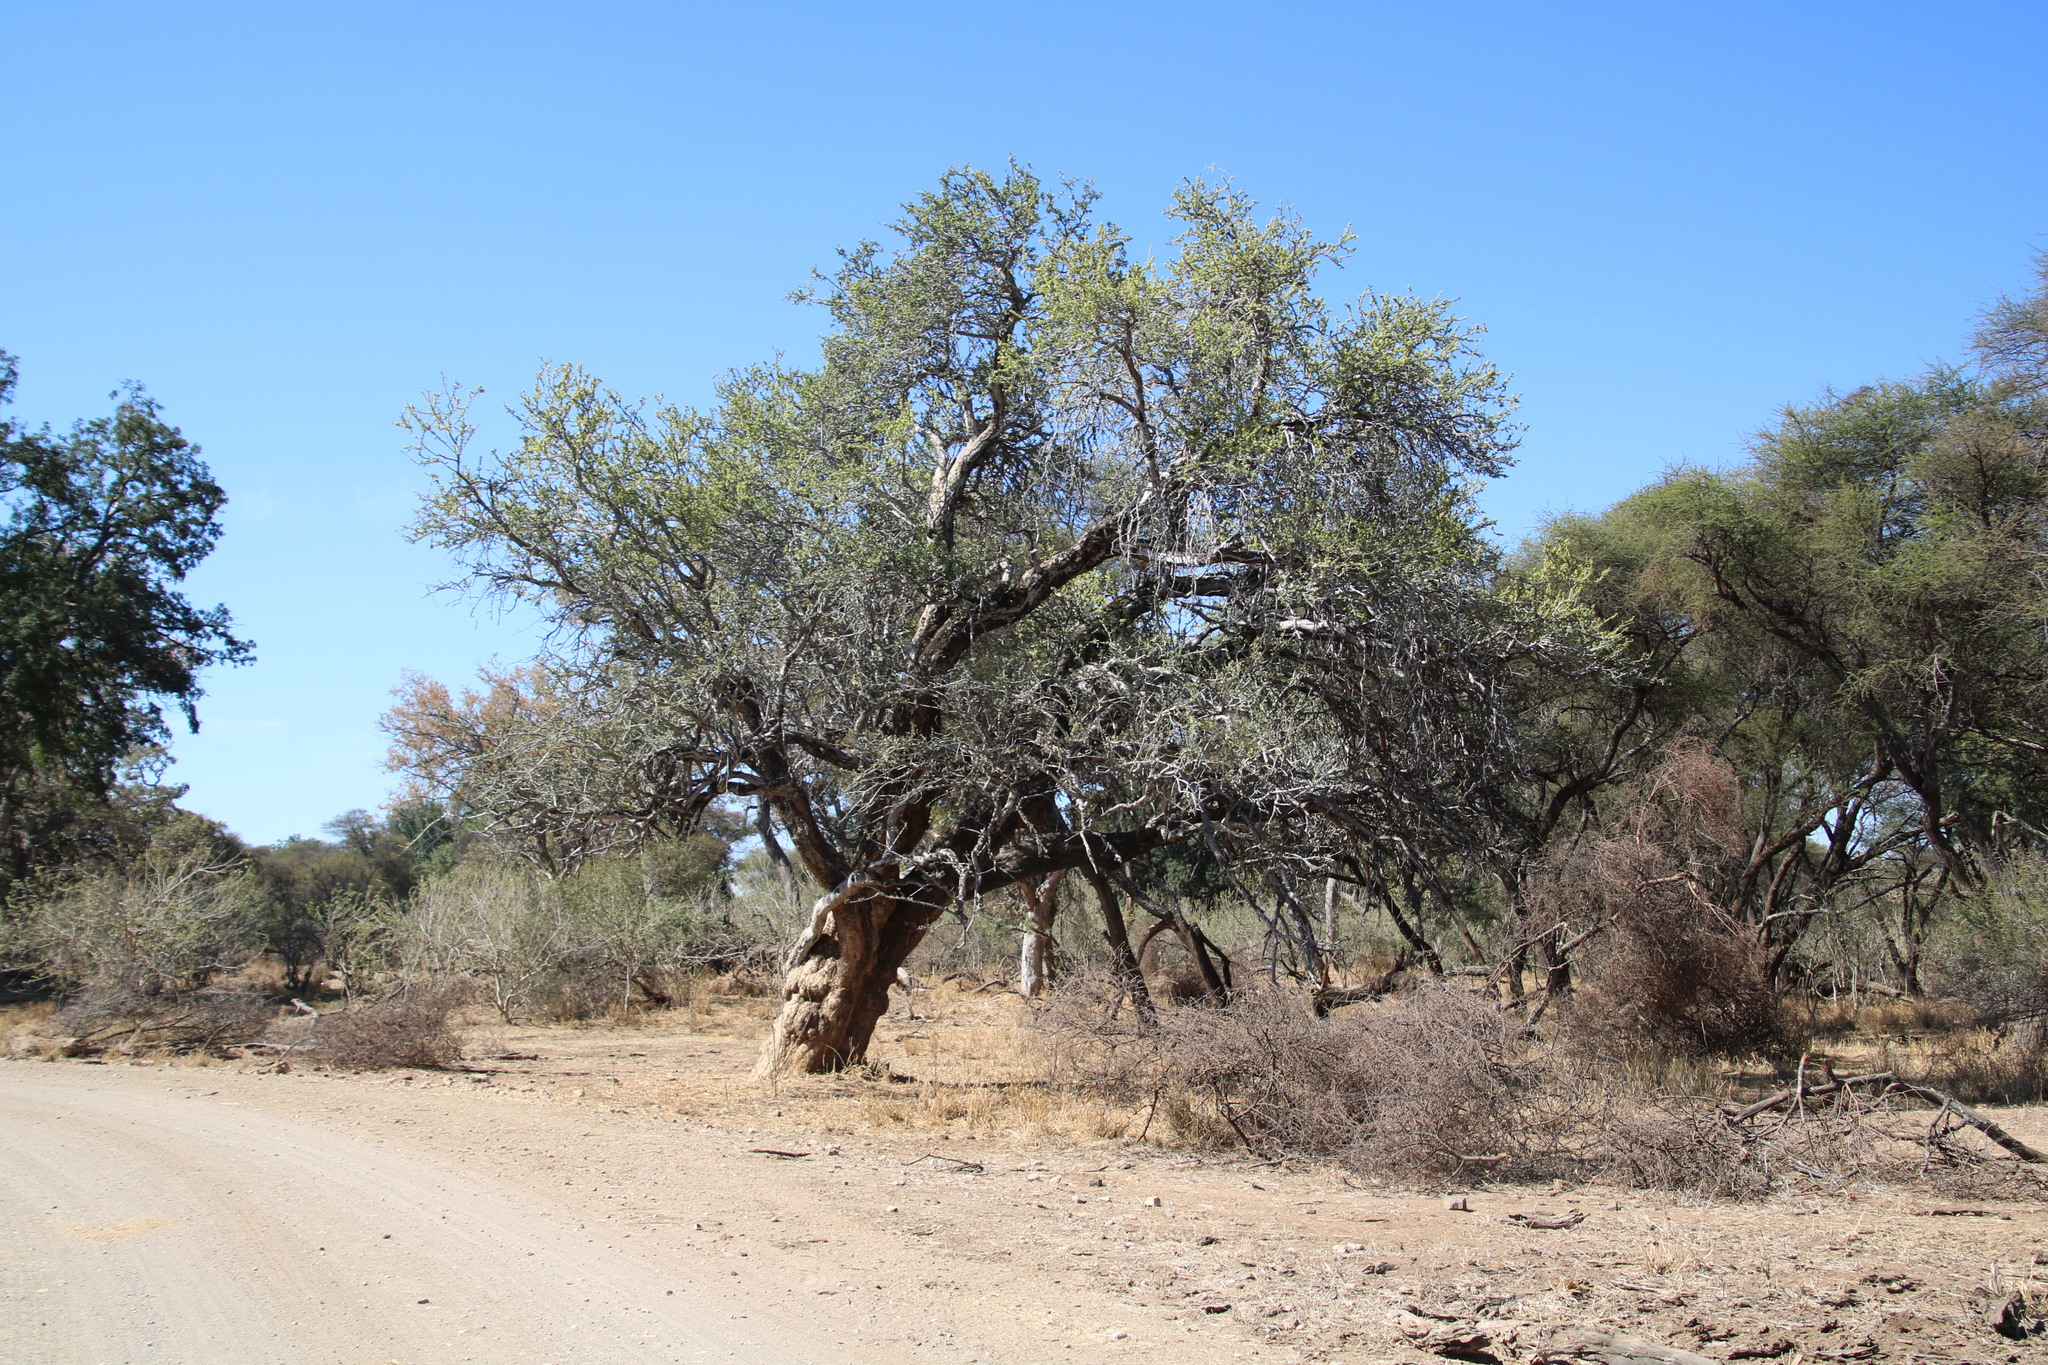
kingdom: Plantae
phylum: Tracheophyta
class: Magnoliopsida
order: Brassicales
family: Capparaceae
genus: Boscia
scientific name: Boscia albitrunca
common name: Caper bush
